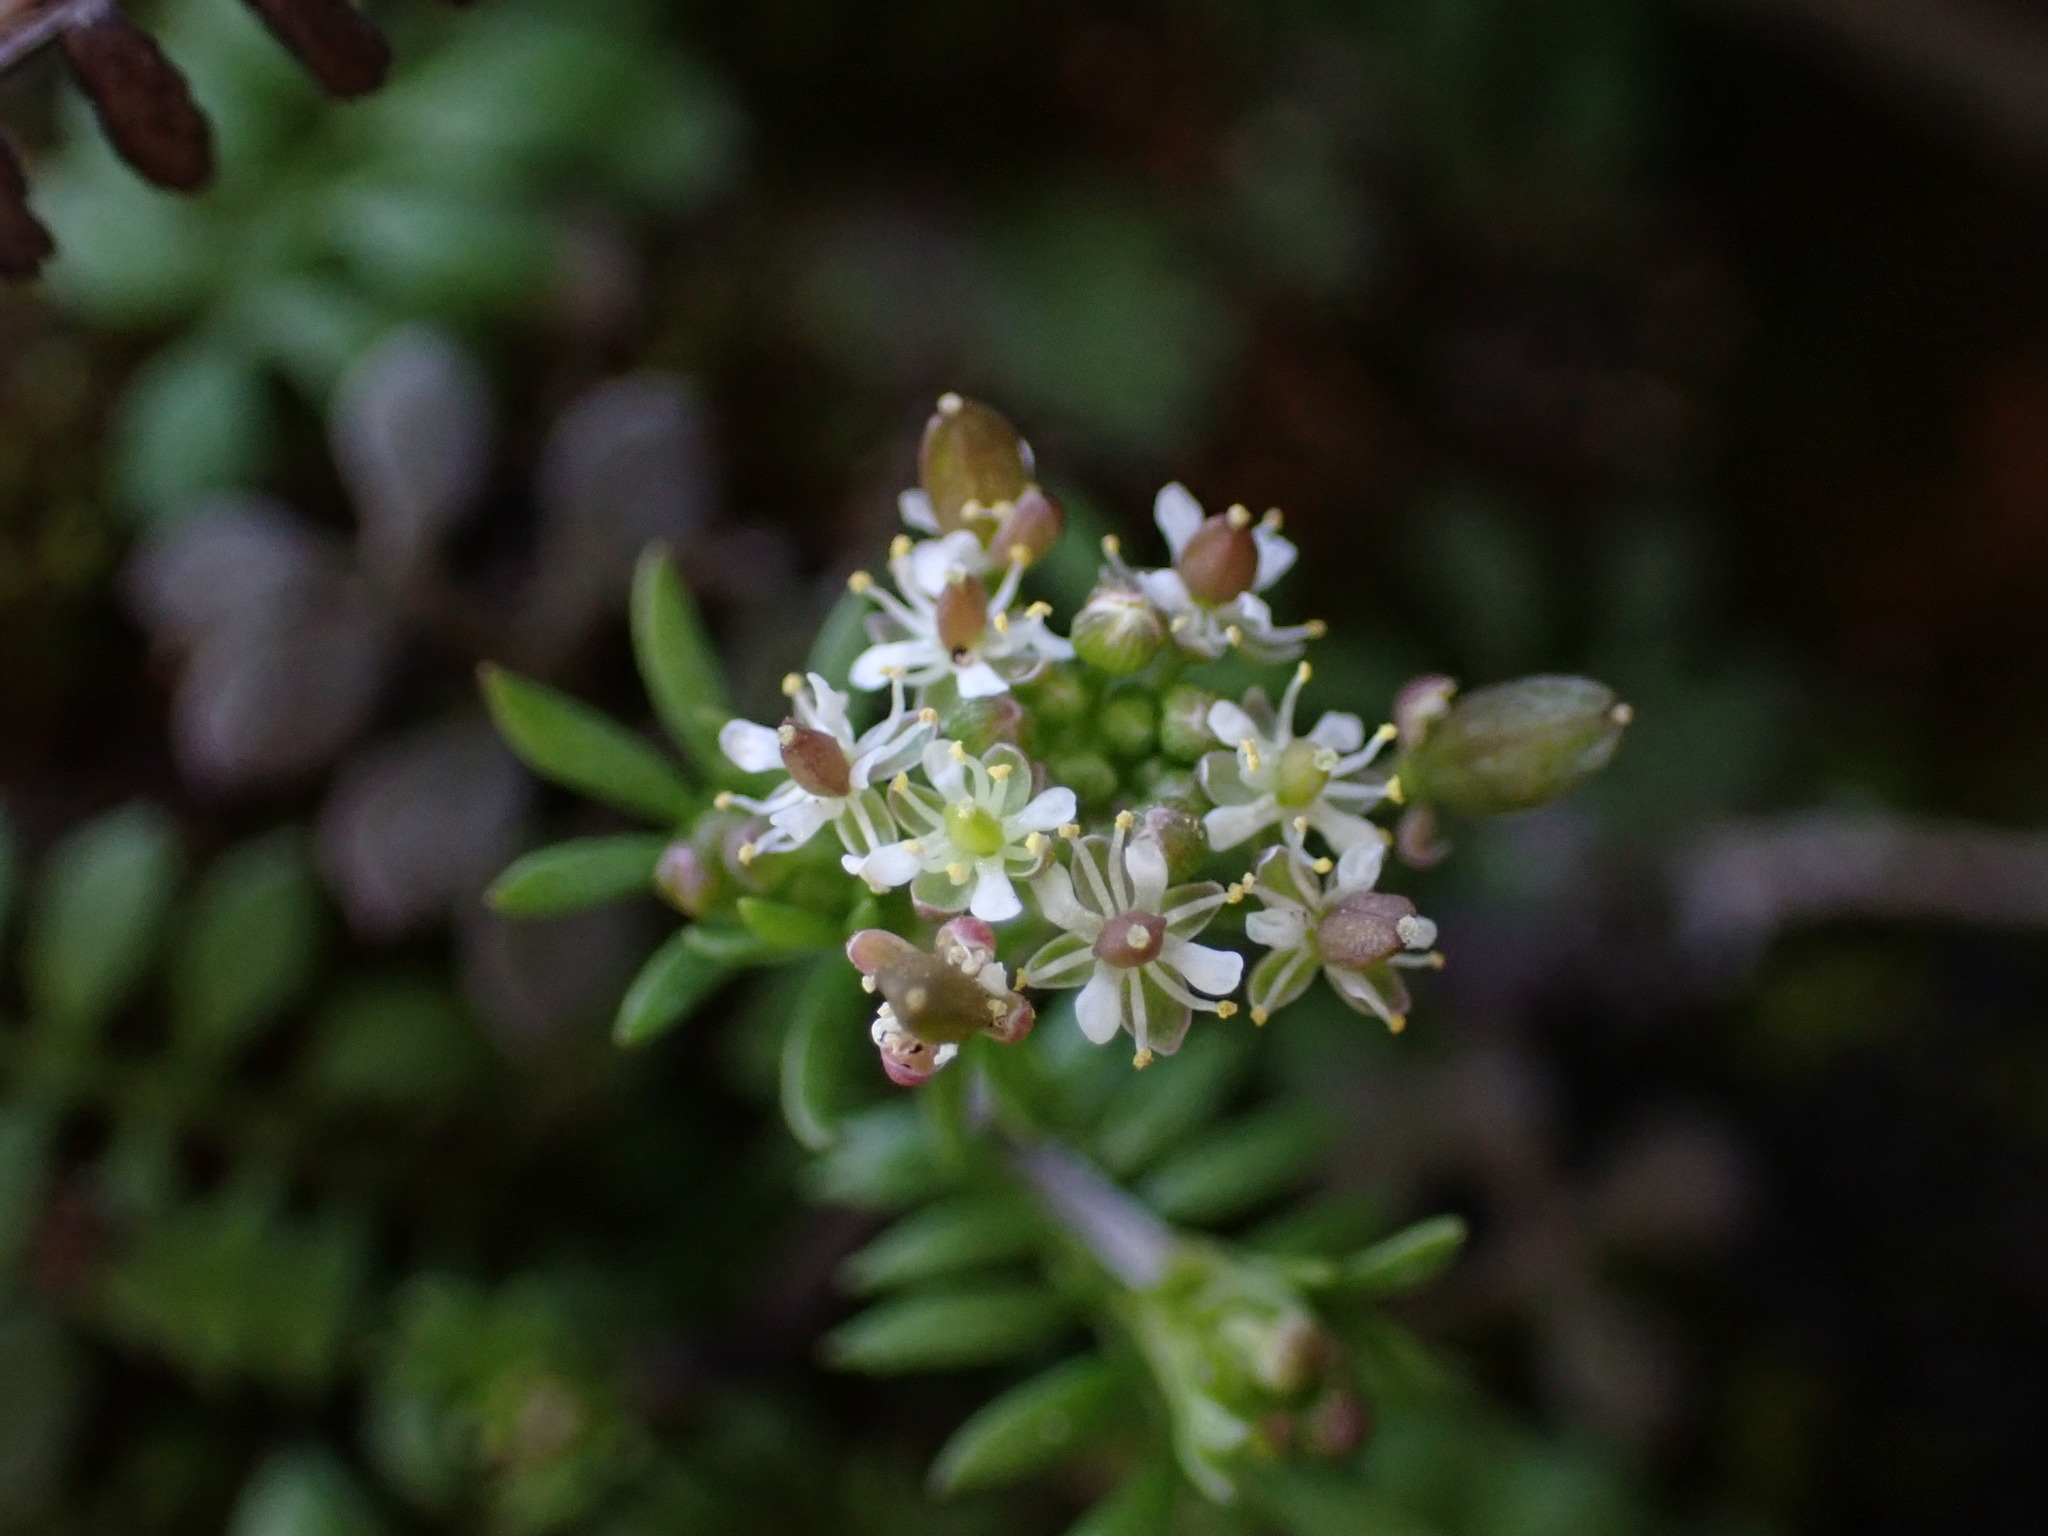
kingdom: Plantae
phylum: Tracheophyta
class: Magnoliopsida
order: Brassicales
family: Brassicaceae
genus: Hornungia
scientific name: Hornungia petraea
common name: Hutchinsia
